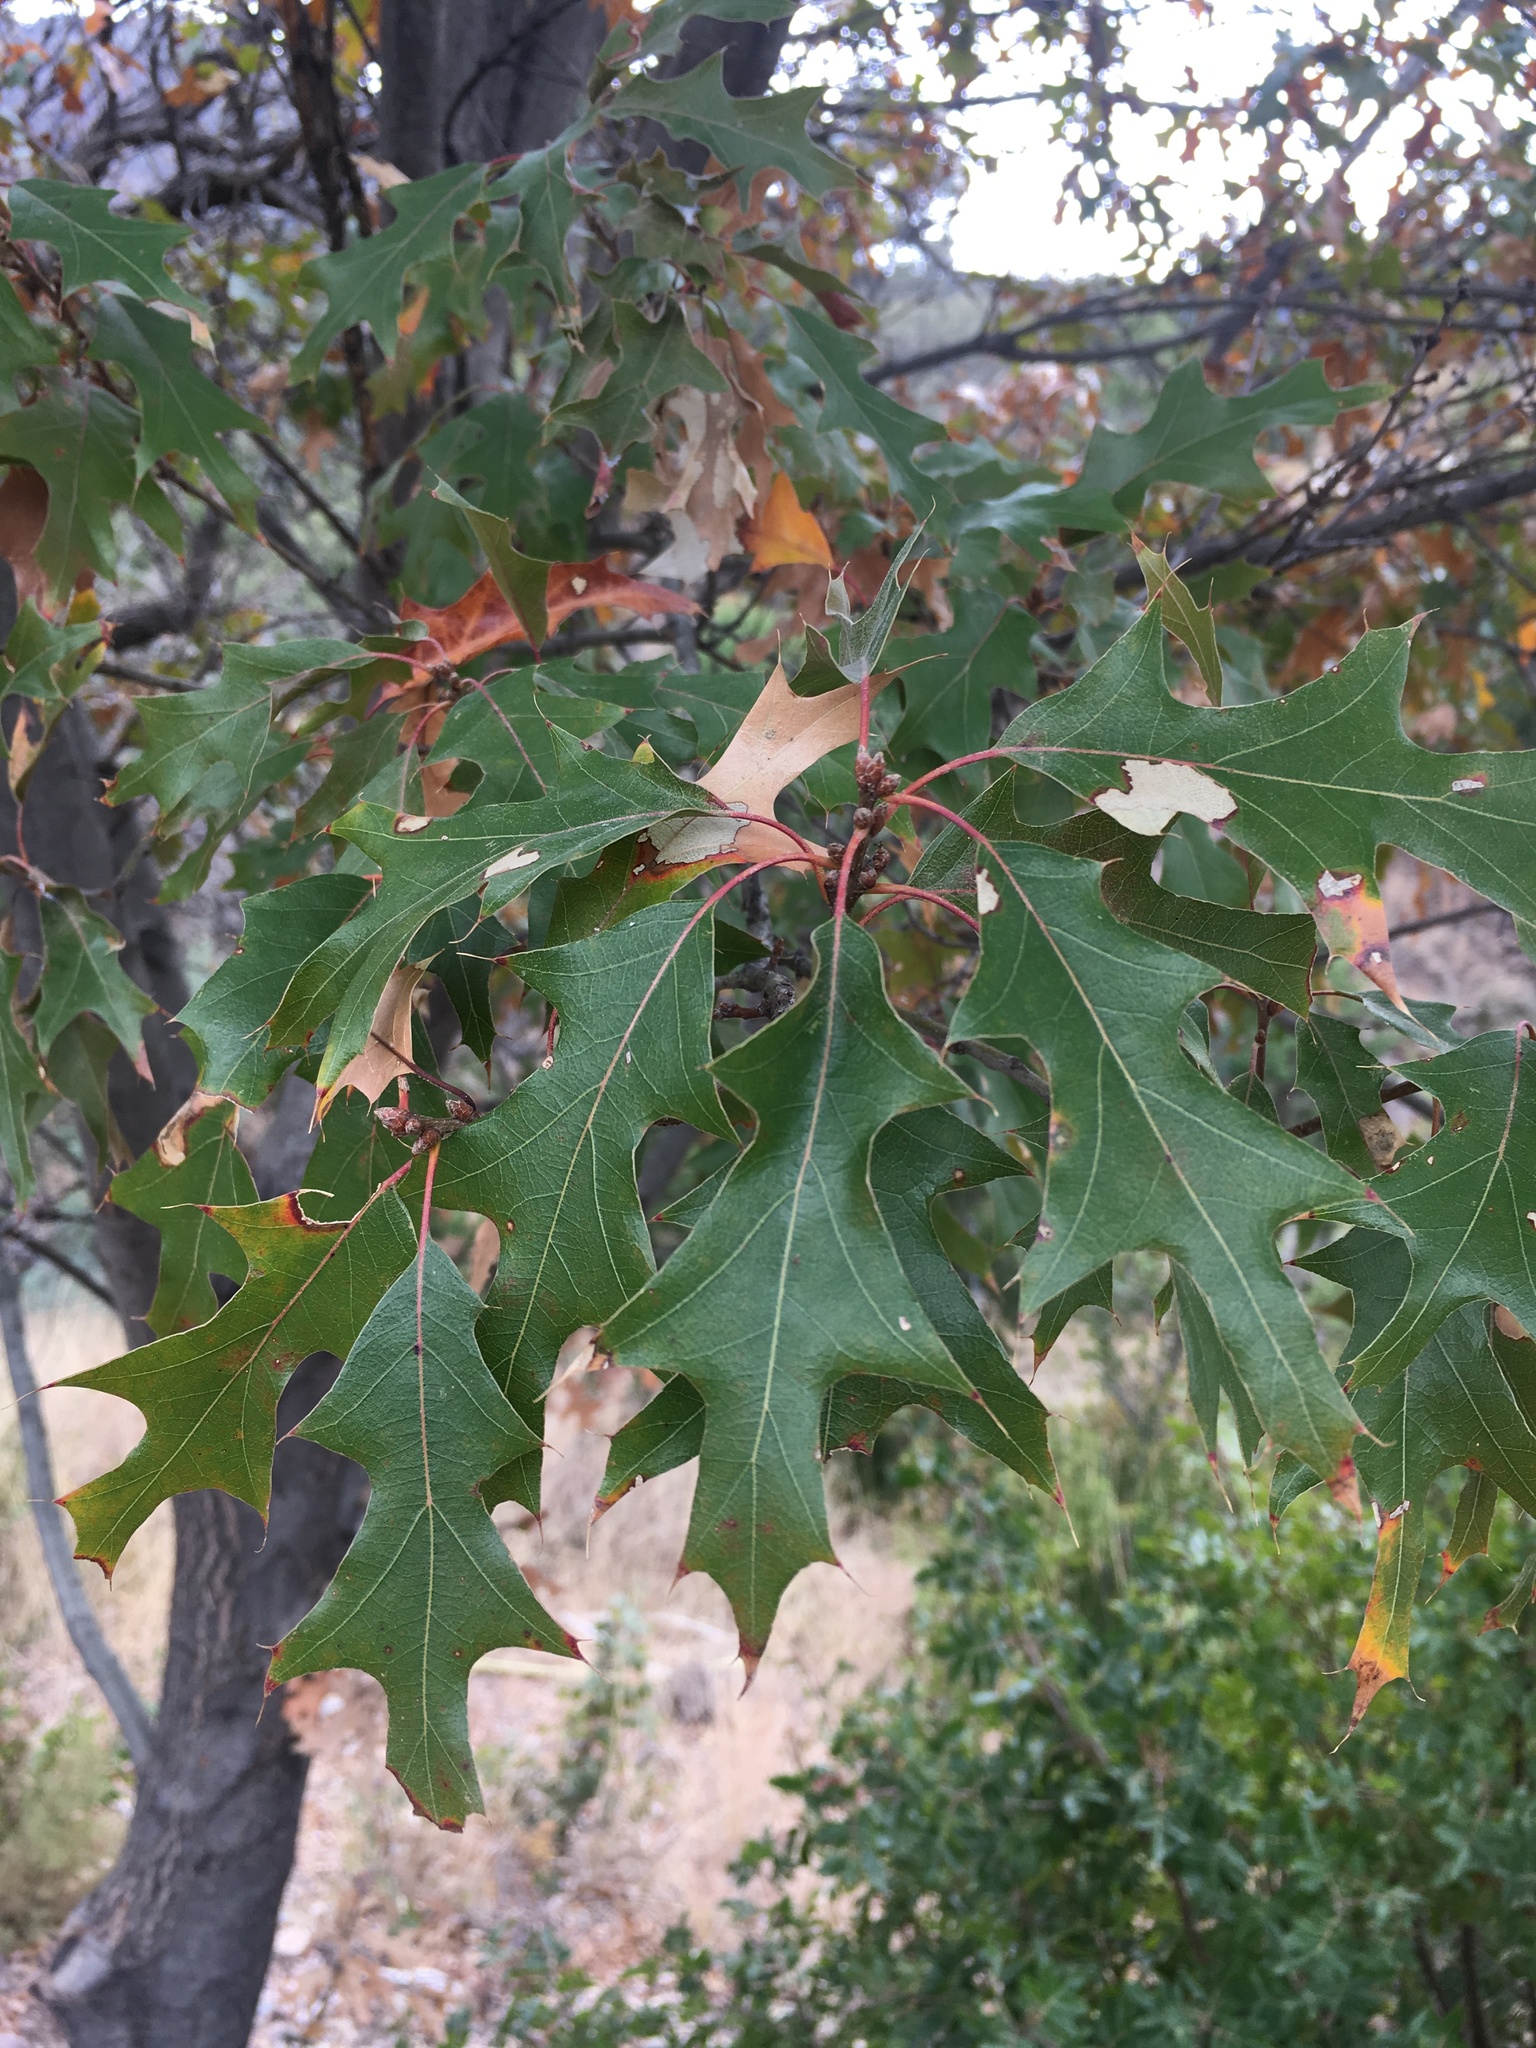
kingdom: Plantae
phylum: Tracheophyta
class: Magnoliopsida
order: Fagales
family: Fagaceae
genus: Quercus
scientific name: Quercus gravesii
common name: Chisos red oak
